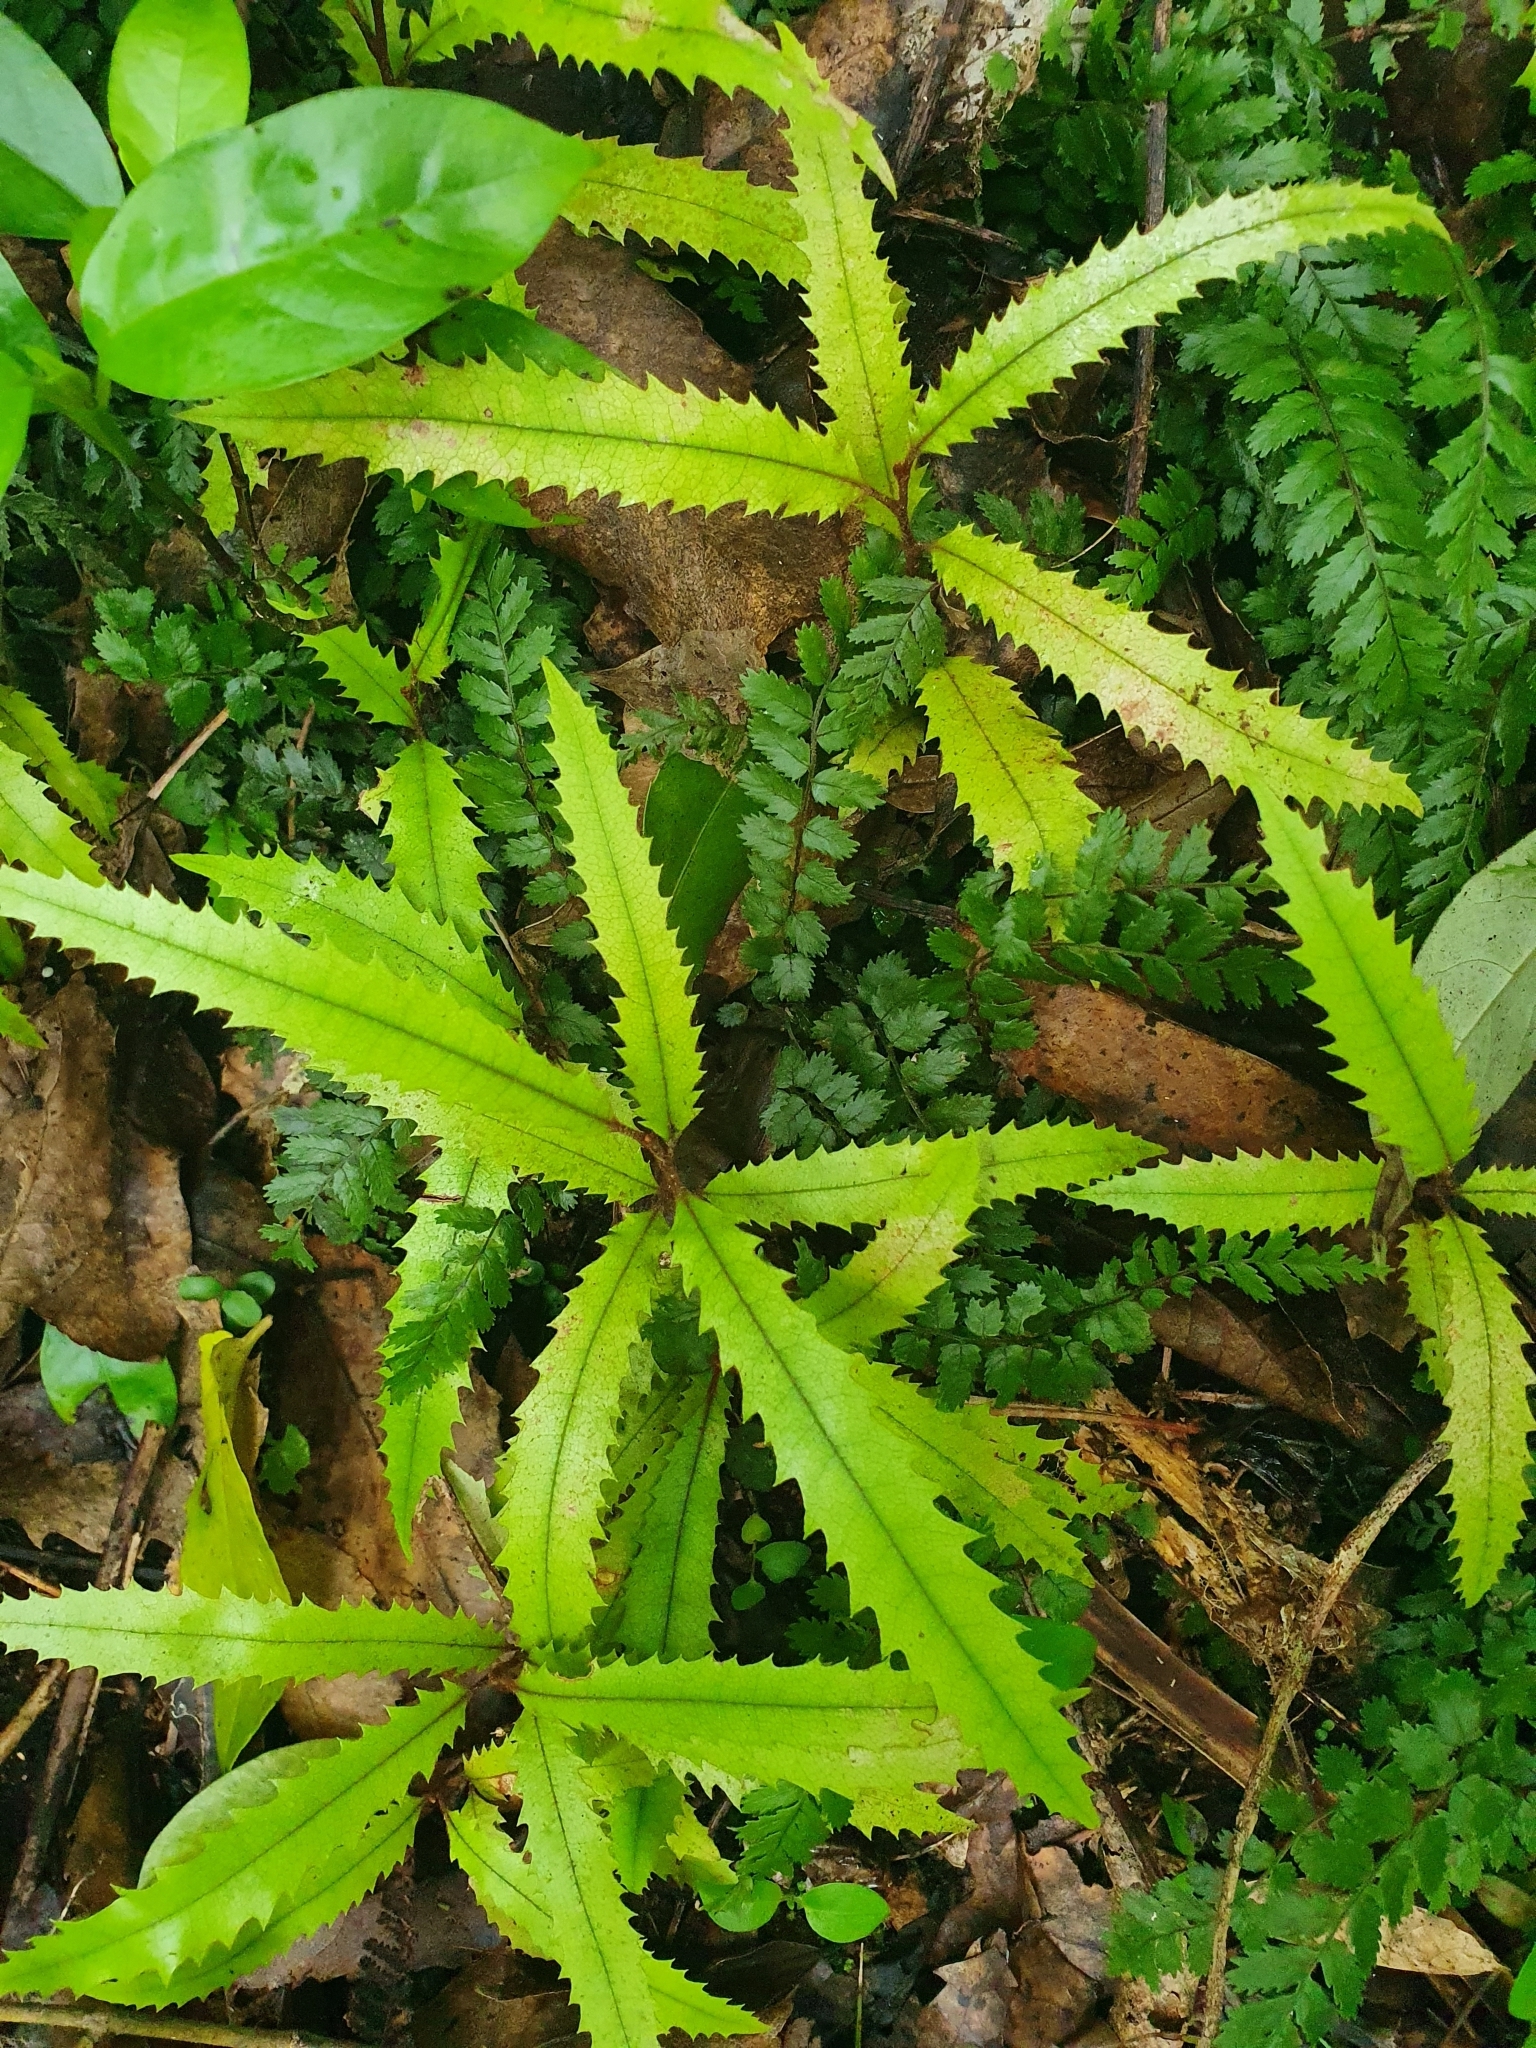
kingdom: Plantae
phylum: Tracheophyta
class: Magnoliopsida
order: Proteales
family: Proteaceae
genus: Knightia
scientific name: Knightia excelsa
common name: New zealand-honeysuckle
